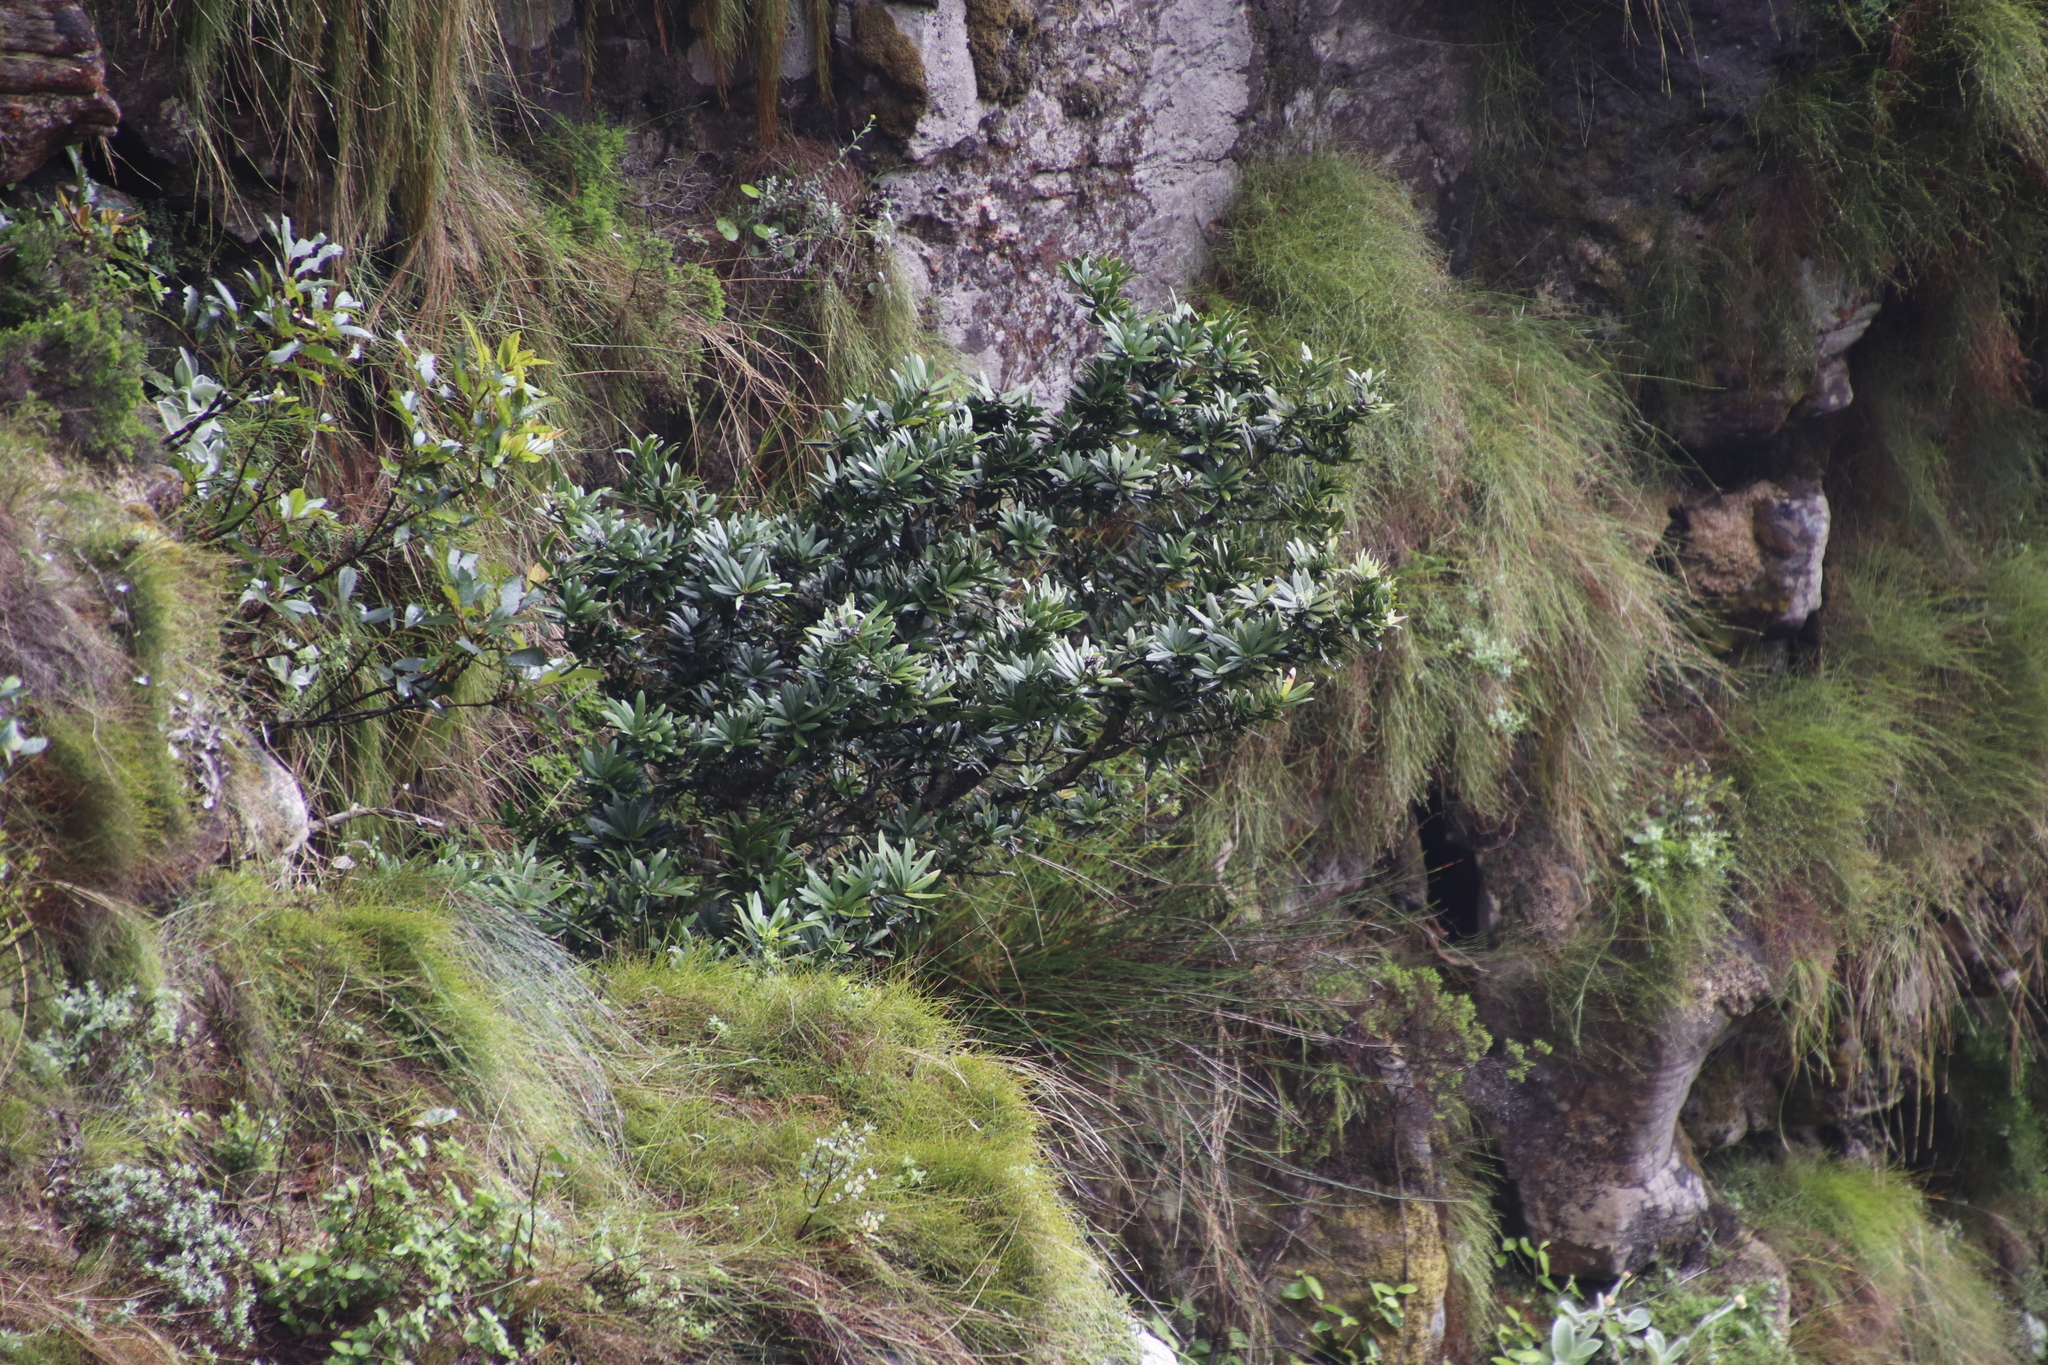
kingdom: Plantae
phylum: Tracheophyta
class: Pinopsida
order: Pinales
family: Podocarpaceae
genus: Podocarpus
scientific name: Podocarpus latifolius
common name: True yellowwood
